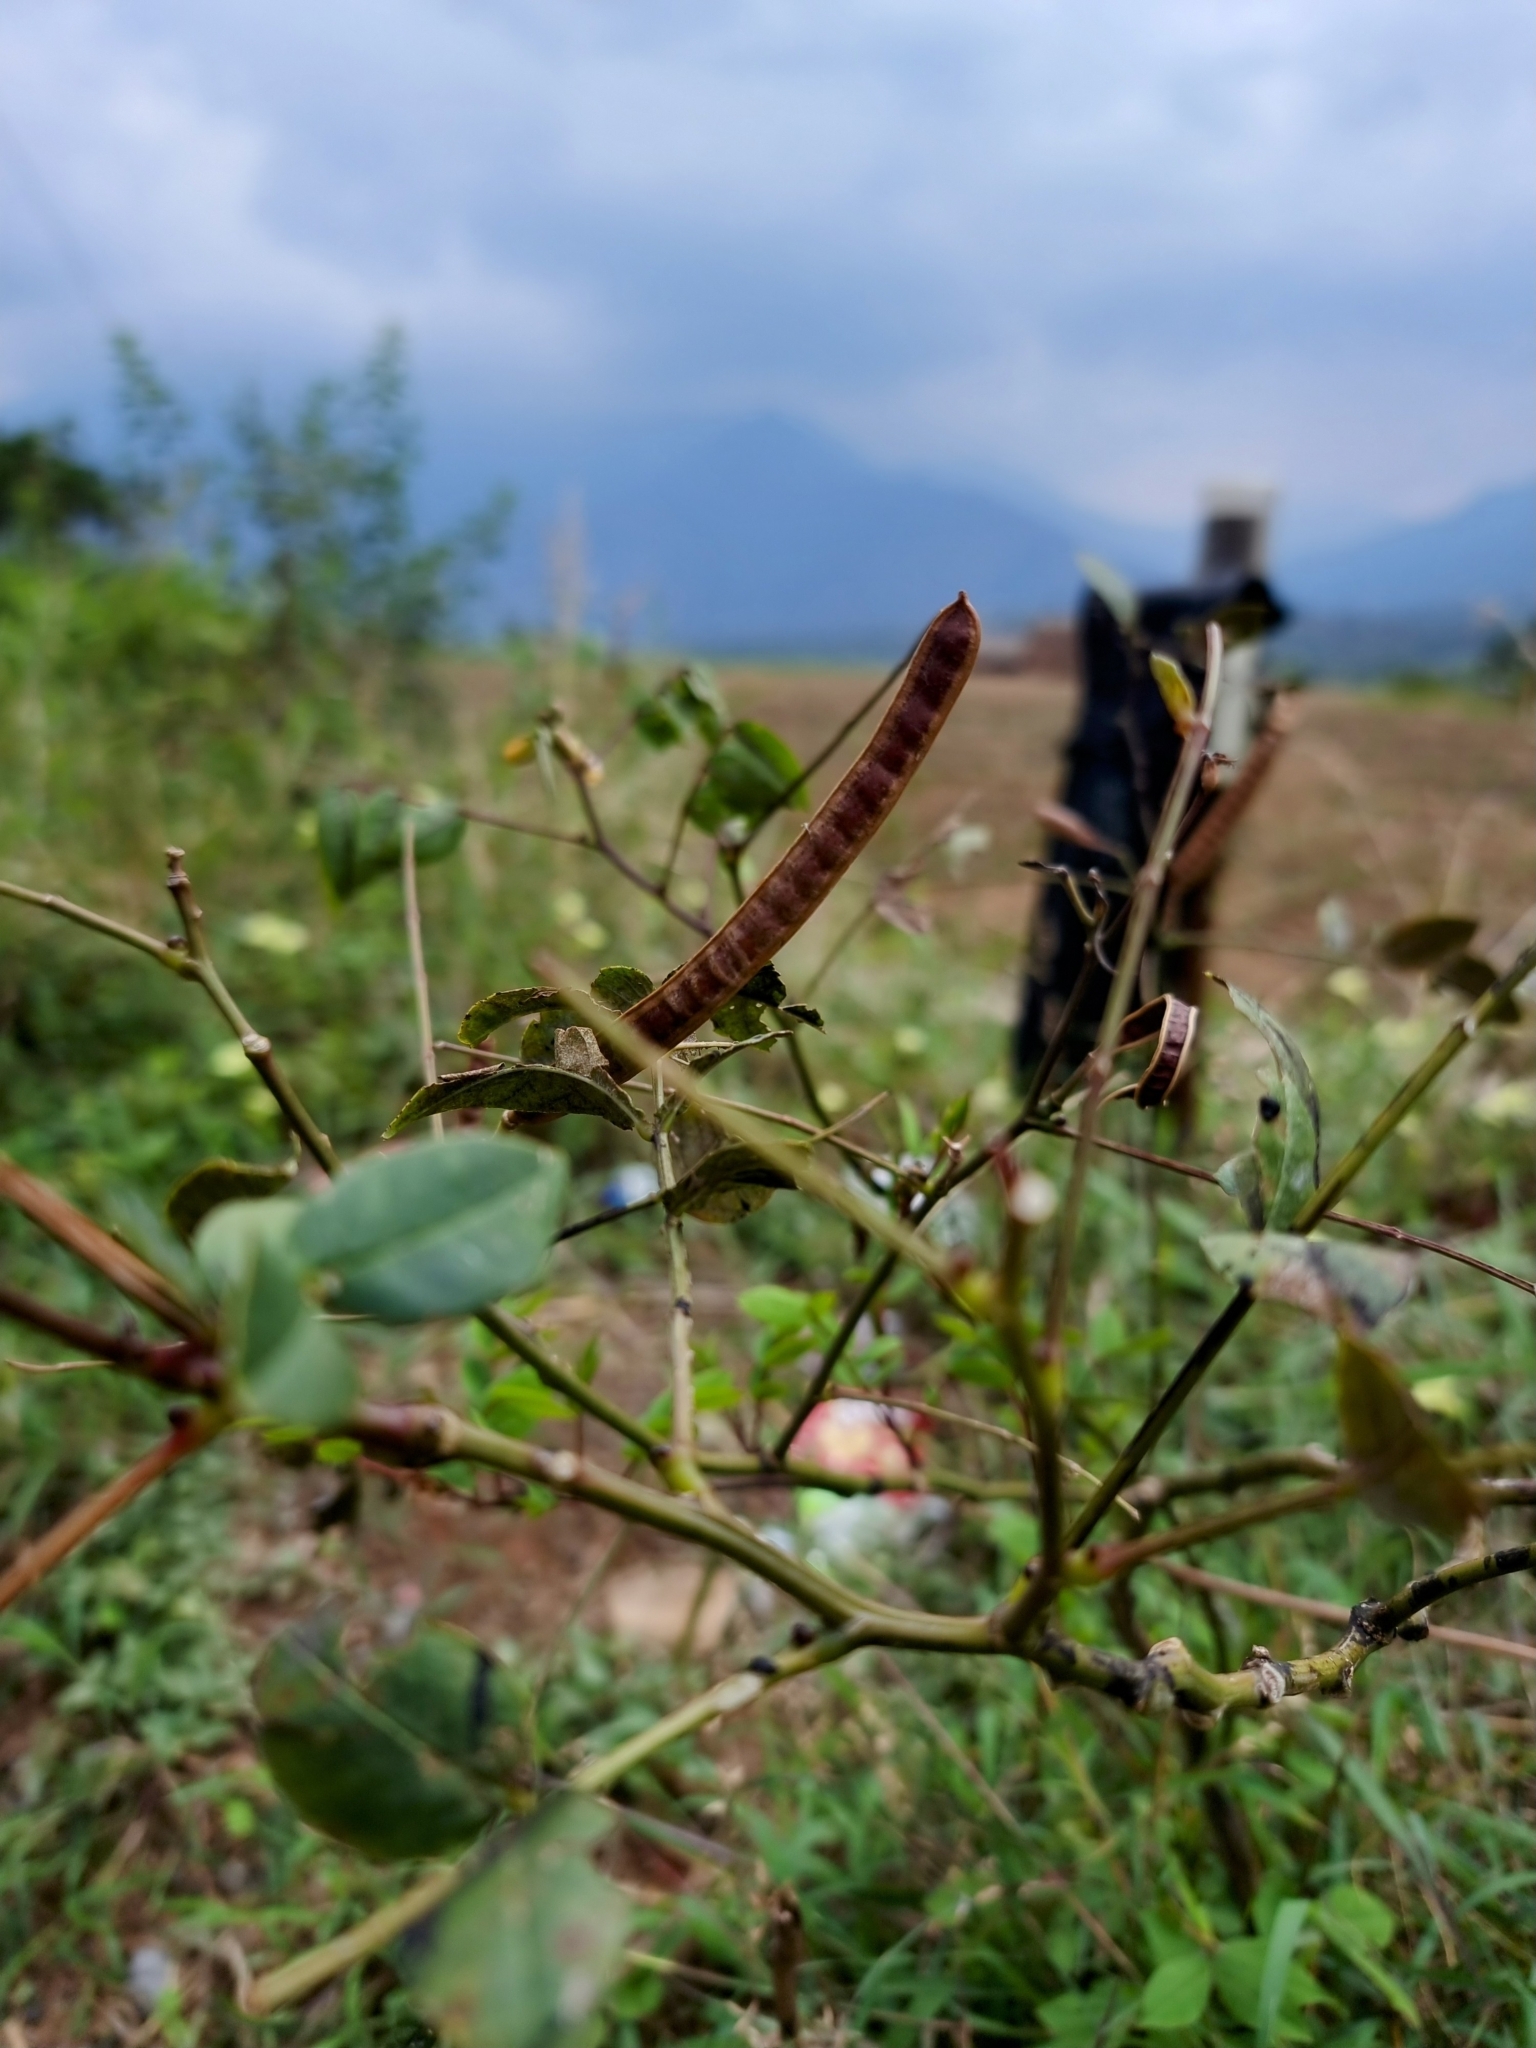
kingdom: Plantae
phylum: Tracheophyta
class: Magnoliopsida
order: Fabales
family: Fabaceae
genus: Senna
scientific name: Senna occidentalis
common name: Septicweed
